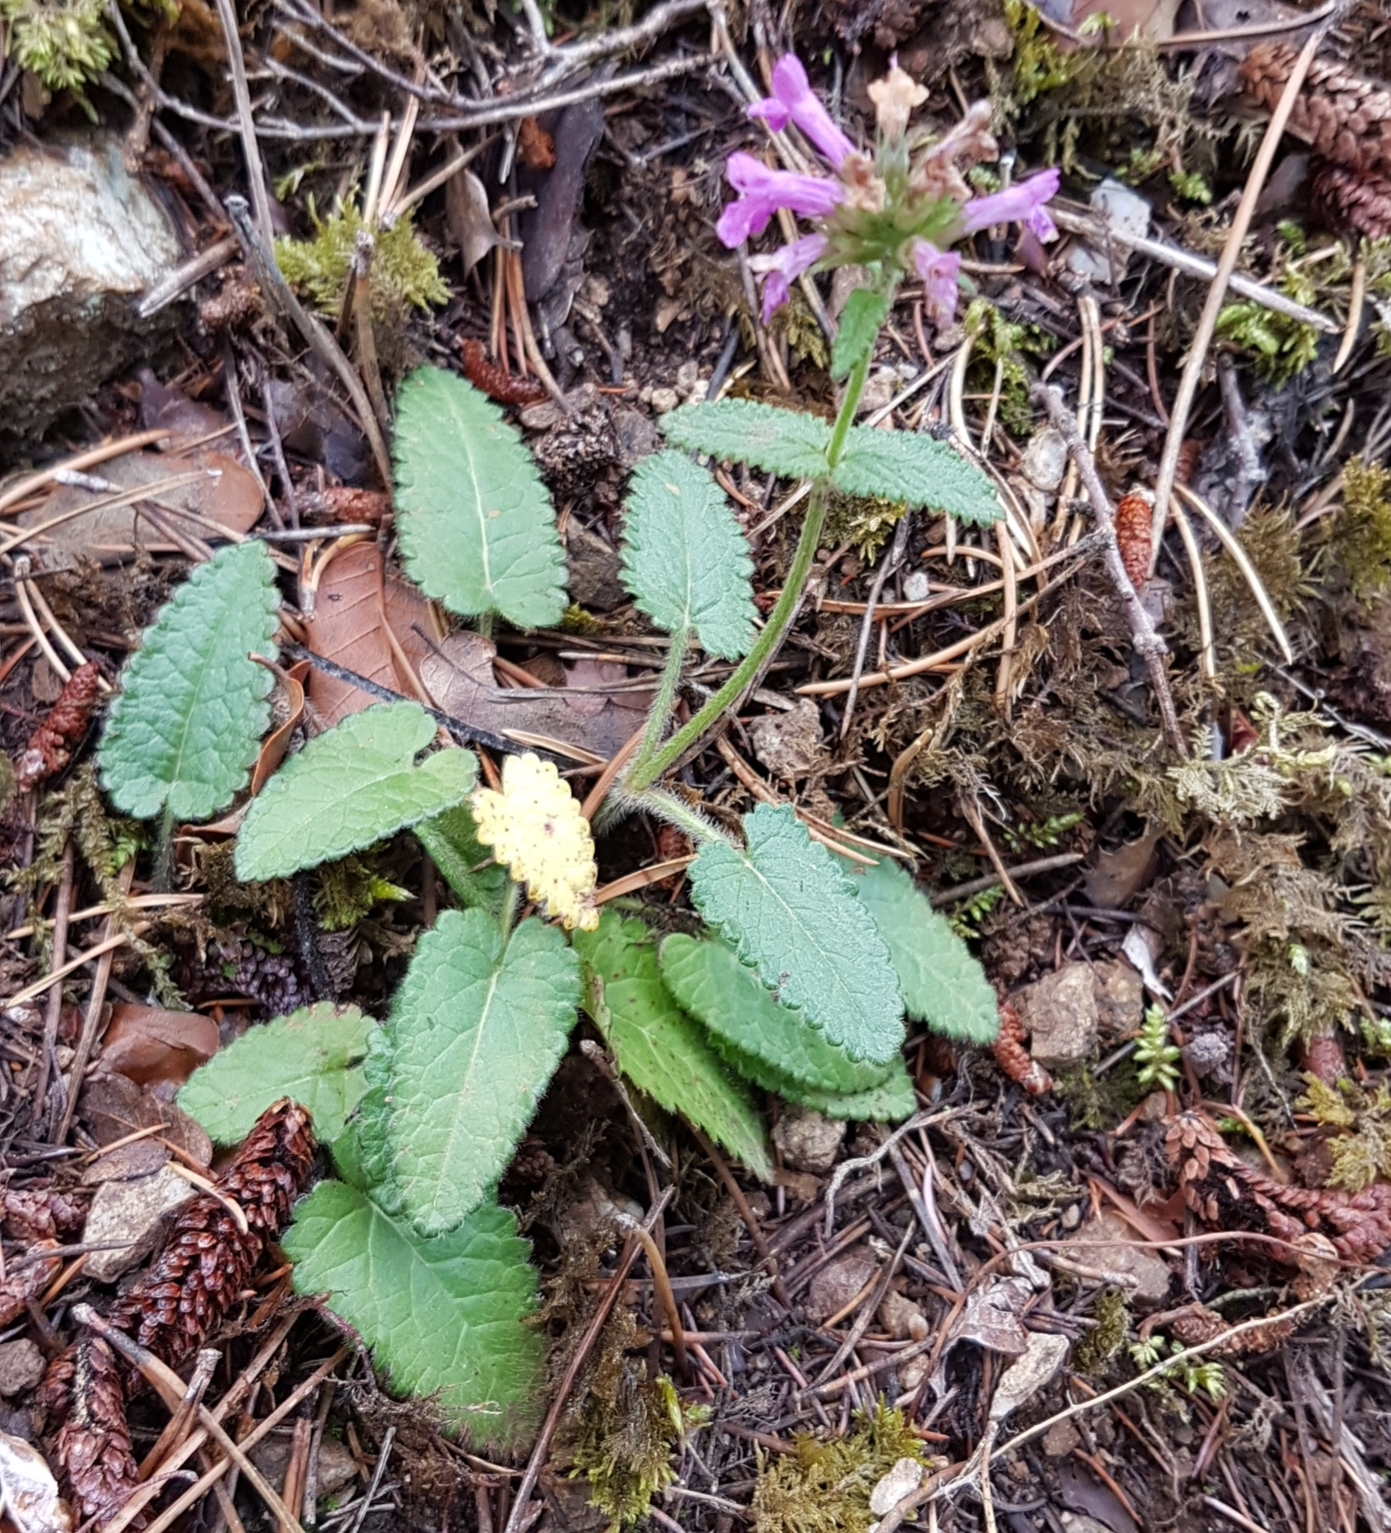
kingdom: Plantae
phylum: Tracheophyta
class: Magnoliopsida
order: Lamiales
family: Lamiaceae
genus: Betonica
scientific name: Betonica officinalis
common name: Bishop's-wort
